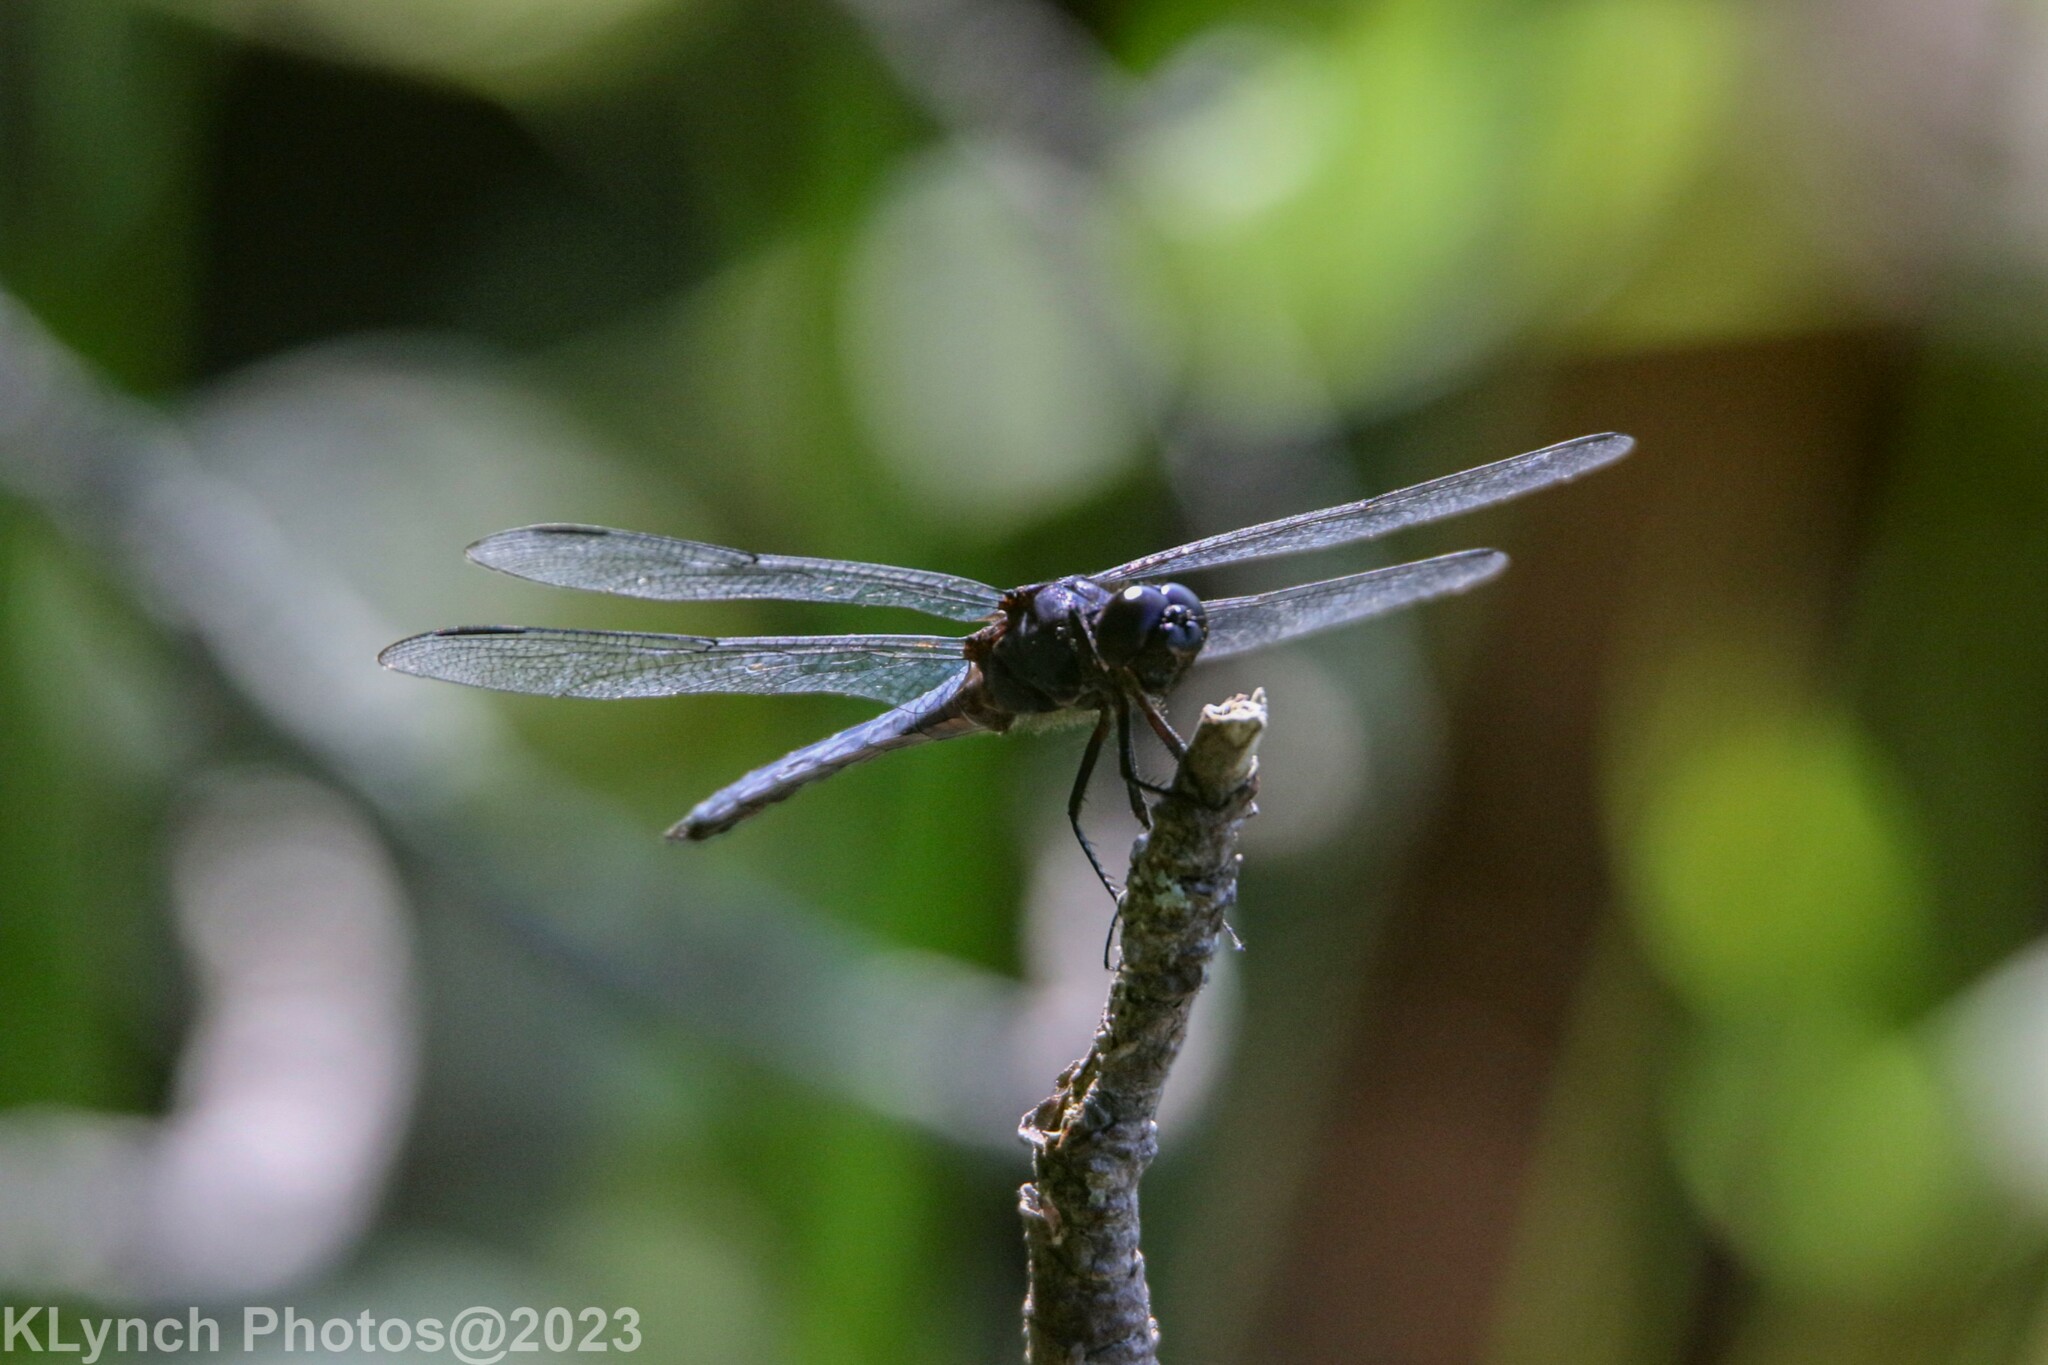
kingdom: Animalia
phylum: Arthropoda
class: Insecta
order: Odonata
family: Libellulidae
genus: Libellula
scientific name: Libellula incesta
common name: Slaty skimmer
